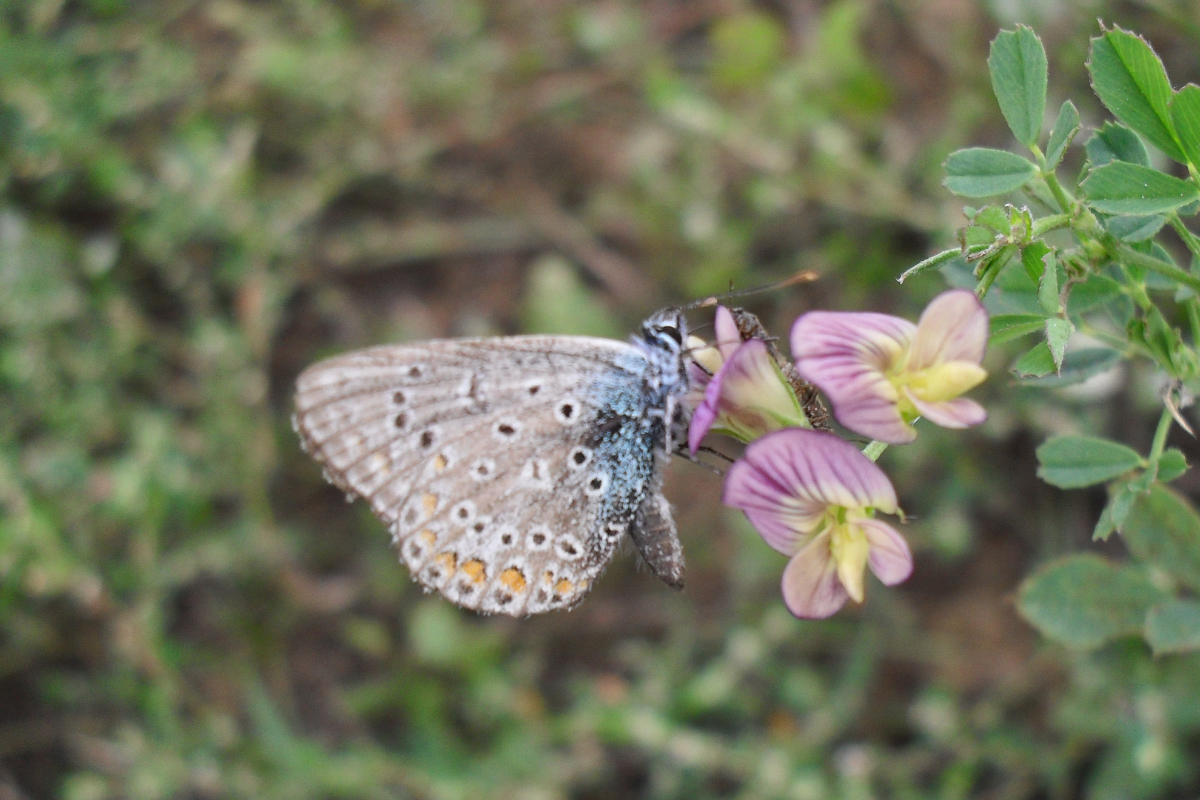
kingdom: Animalia
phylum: Arthropoda
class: Insecta
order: Lepidoptera
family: Lycaenidae
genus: Polyommatus
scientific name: Polyommatus icarus
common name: Common blue
